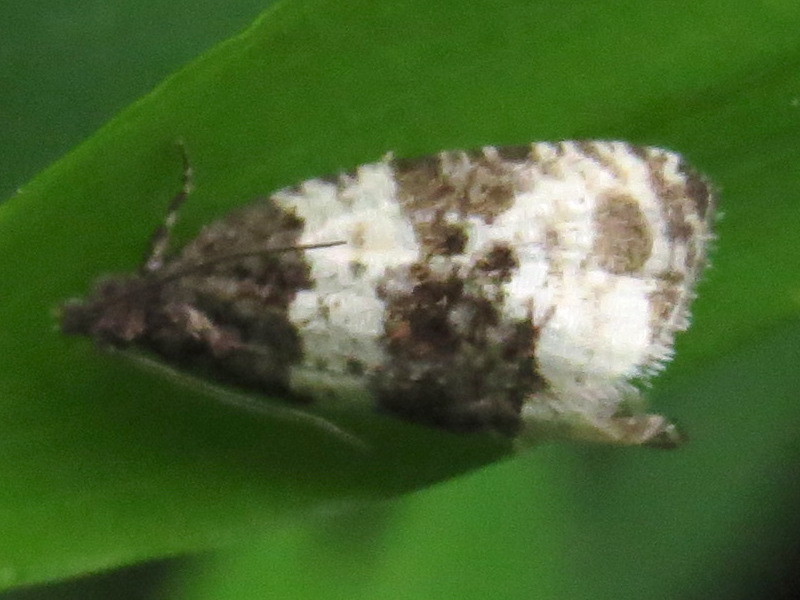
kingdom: Animalia
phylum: Arthropoda
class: Insecta
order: Lepidoptera
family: Tortricidae
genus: Olethreutes
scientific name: Olethreutes bipartitana
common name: Divided olethreutes moth
